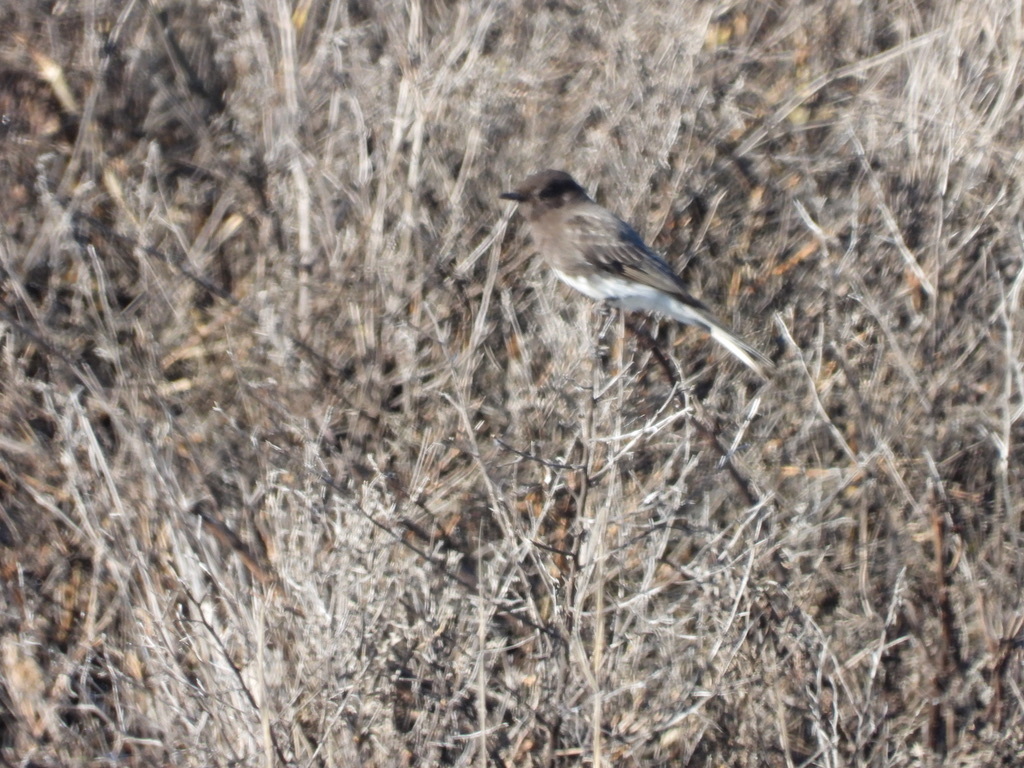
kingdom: Animalia
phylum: Chordata
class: Aves
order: Passeriformes
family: Tyrannidae
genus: Sayornis
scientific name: Sayornis nigricans
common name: Black phoebe
